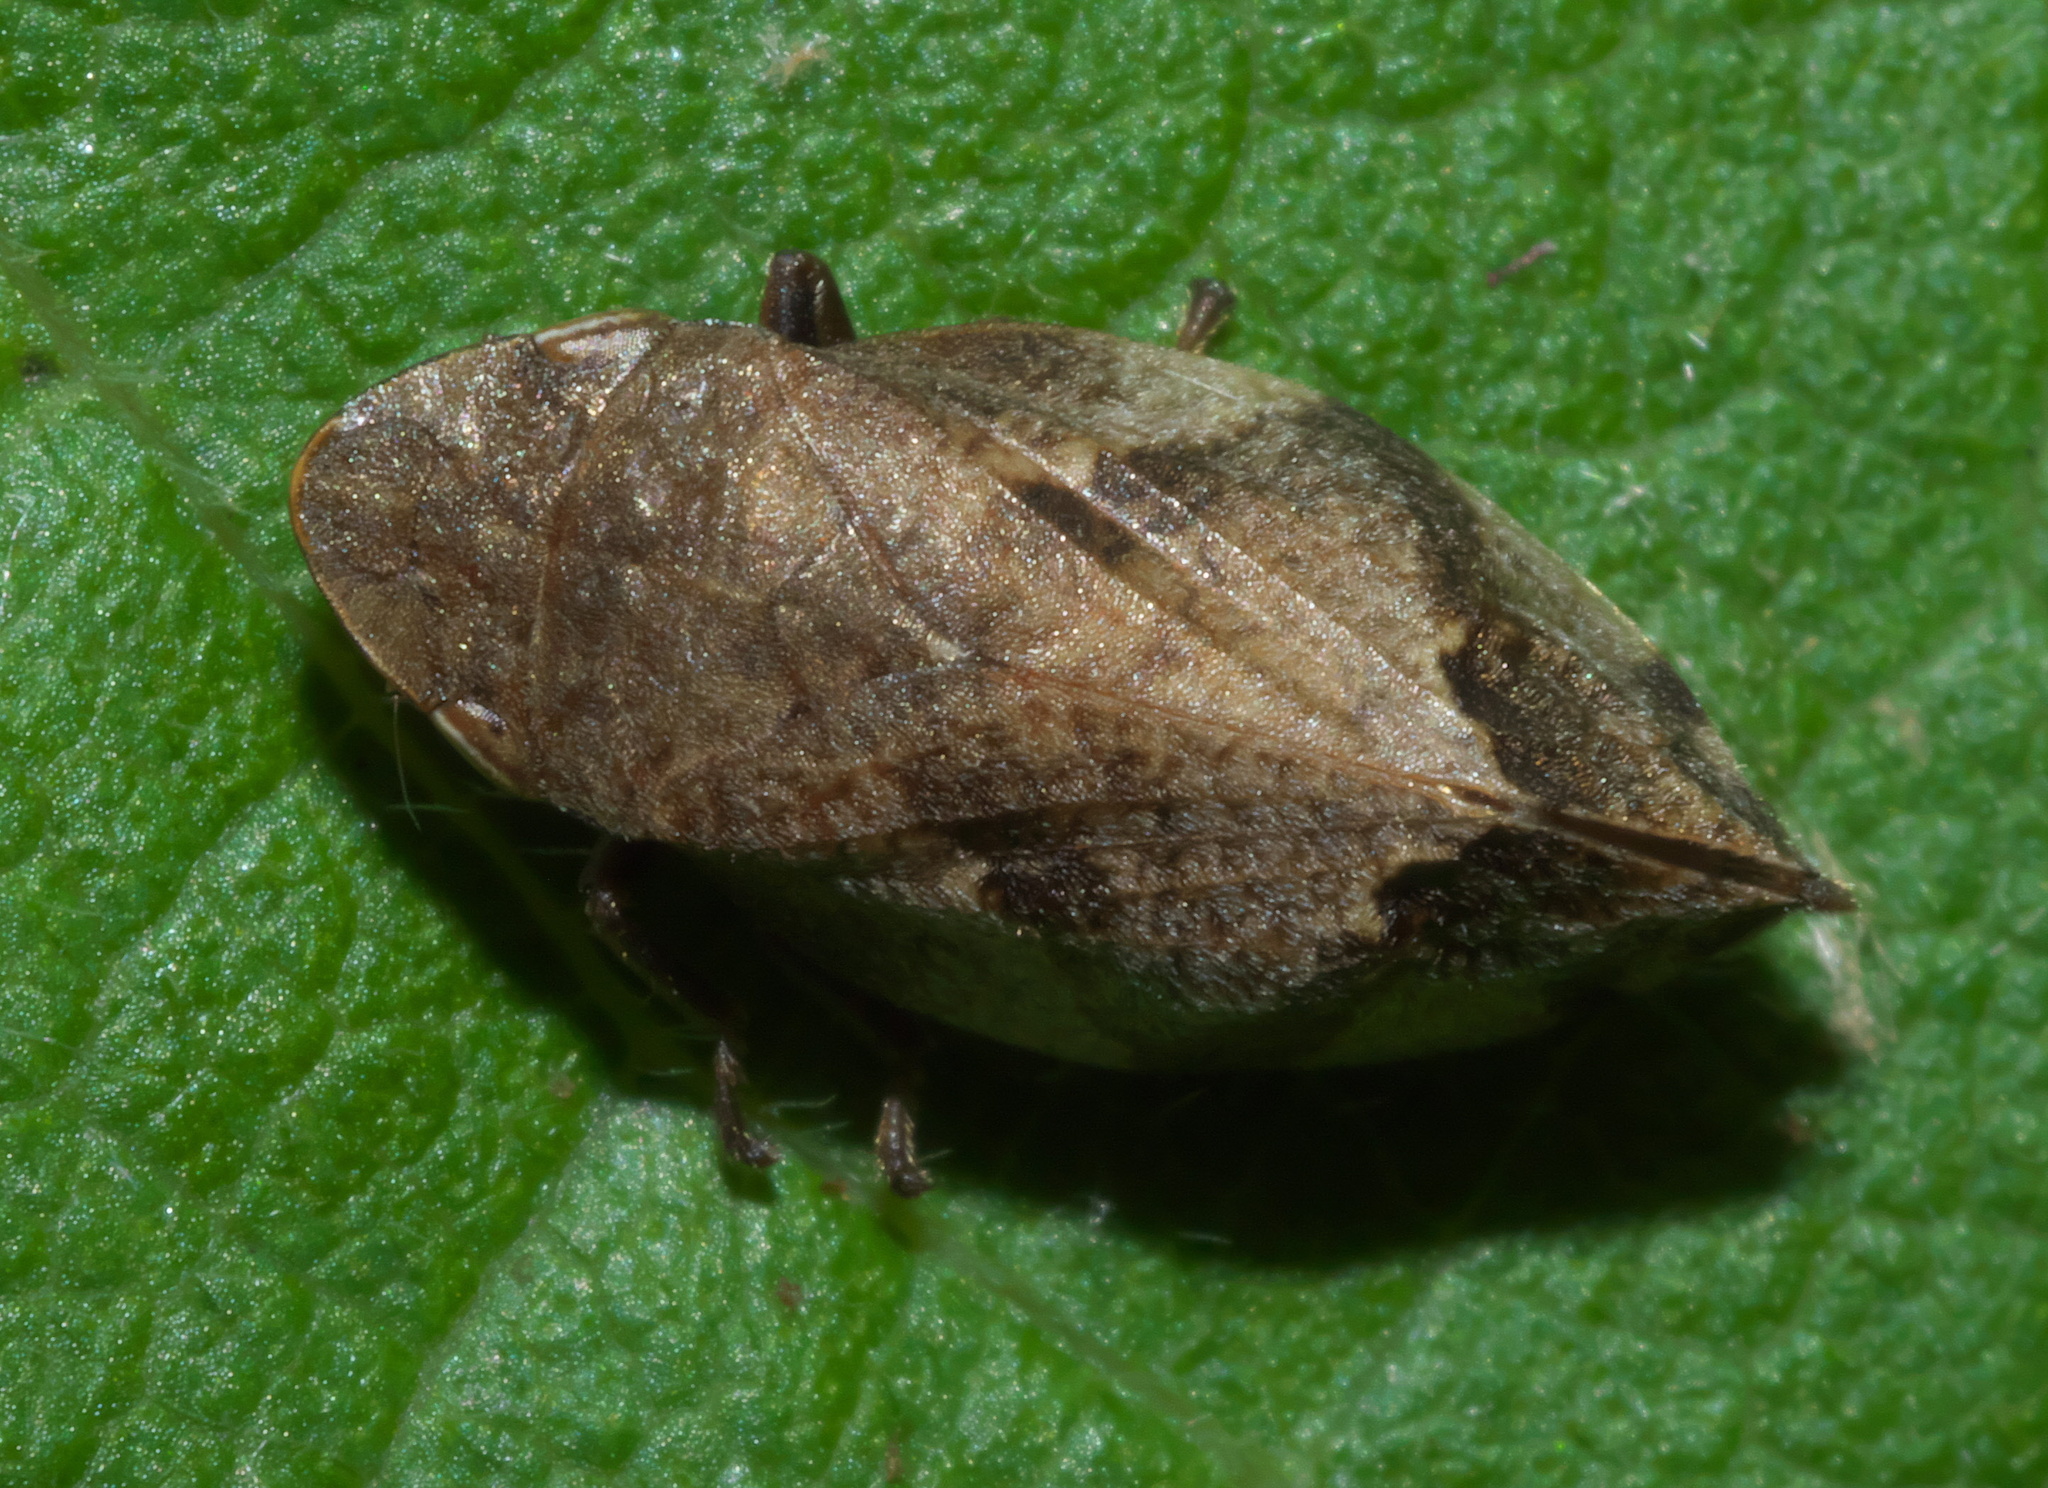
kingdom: Animalia
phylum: Arthropoda
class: Insecta
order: Hemiptera
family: Aphrophoridae
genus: Lepyronia
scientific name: Lepyronia quadrangularis
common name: Diamond-backed spittlebug
